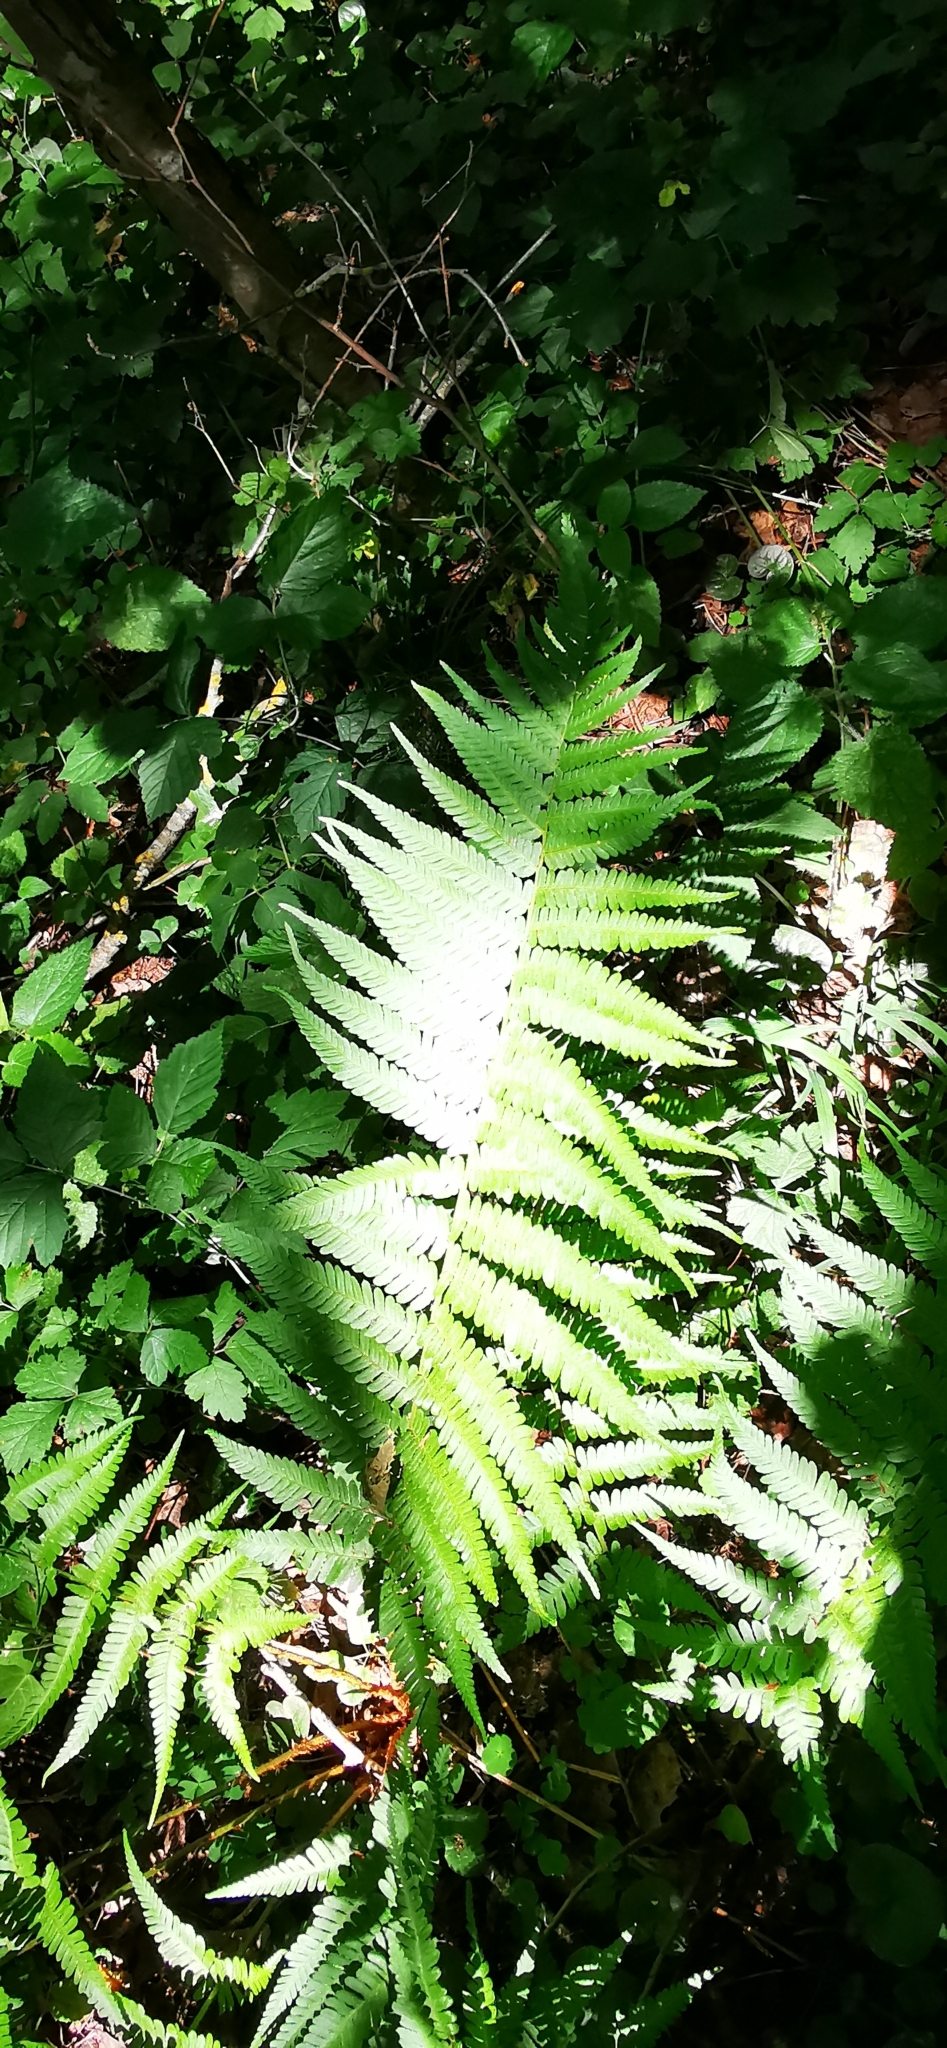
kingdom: Plantae
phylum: Tracheophyta
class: Polypodiopsida
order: Polypodiales
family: Dryopteridaceae
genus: Dryopteris
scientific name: Dryopteris filix-mas
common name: Male fern
